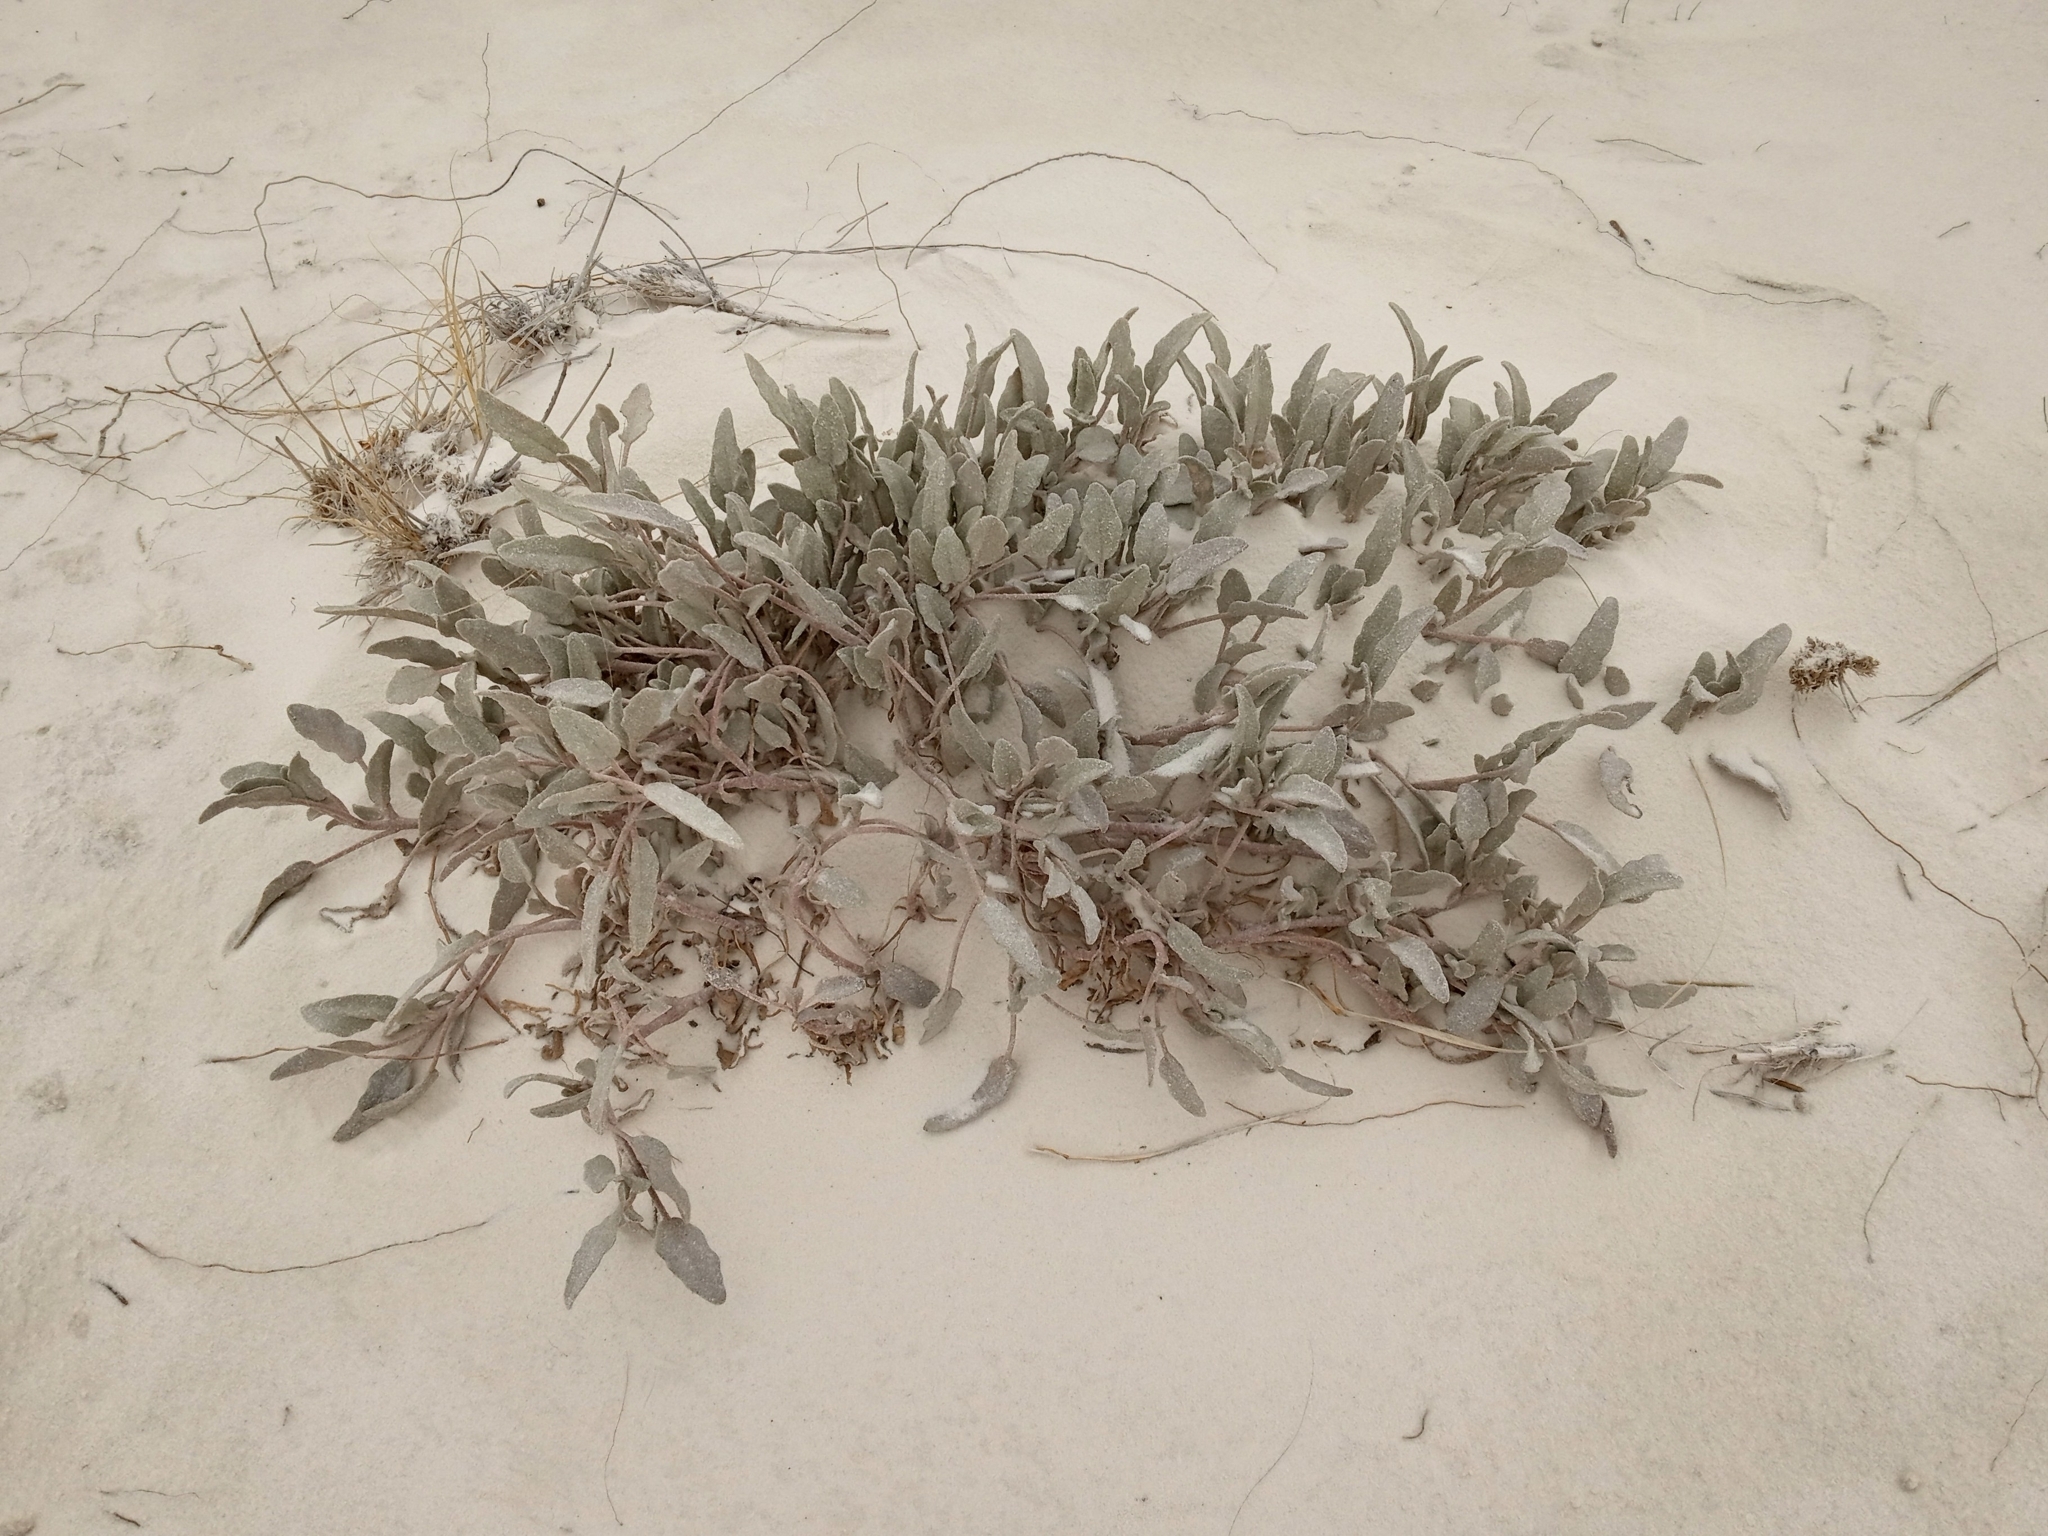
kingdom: Plantae
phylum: Tracheophyta
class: Magnoliopsida
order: Caryophyllales
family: Nyctaginaceae
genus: Abronia
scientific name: Abronia angustifolia
